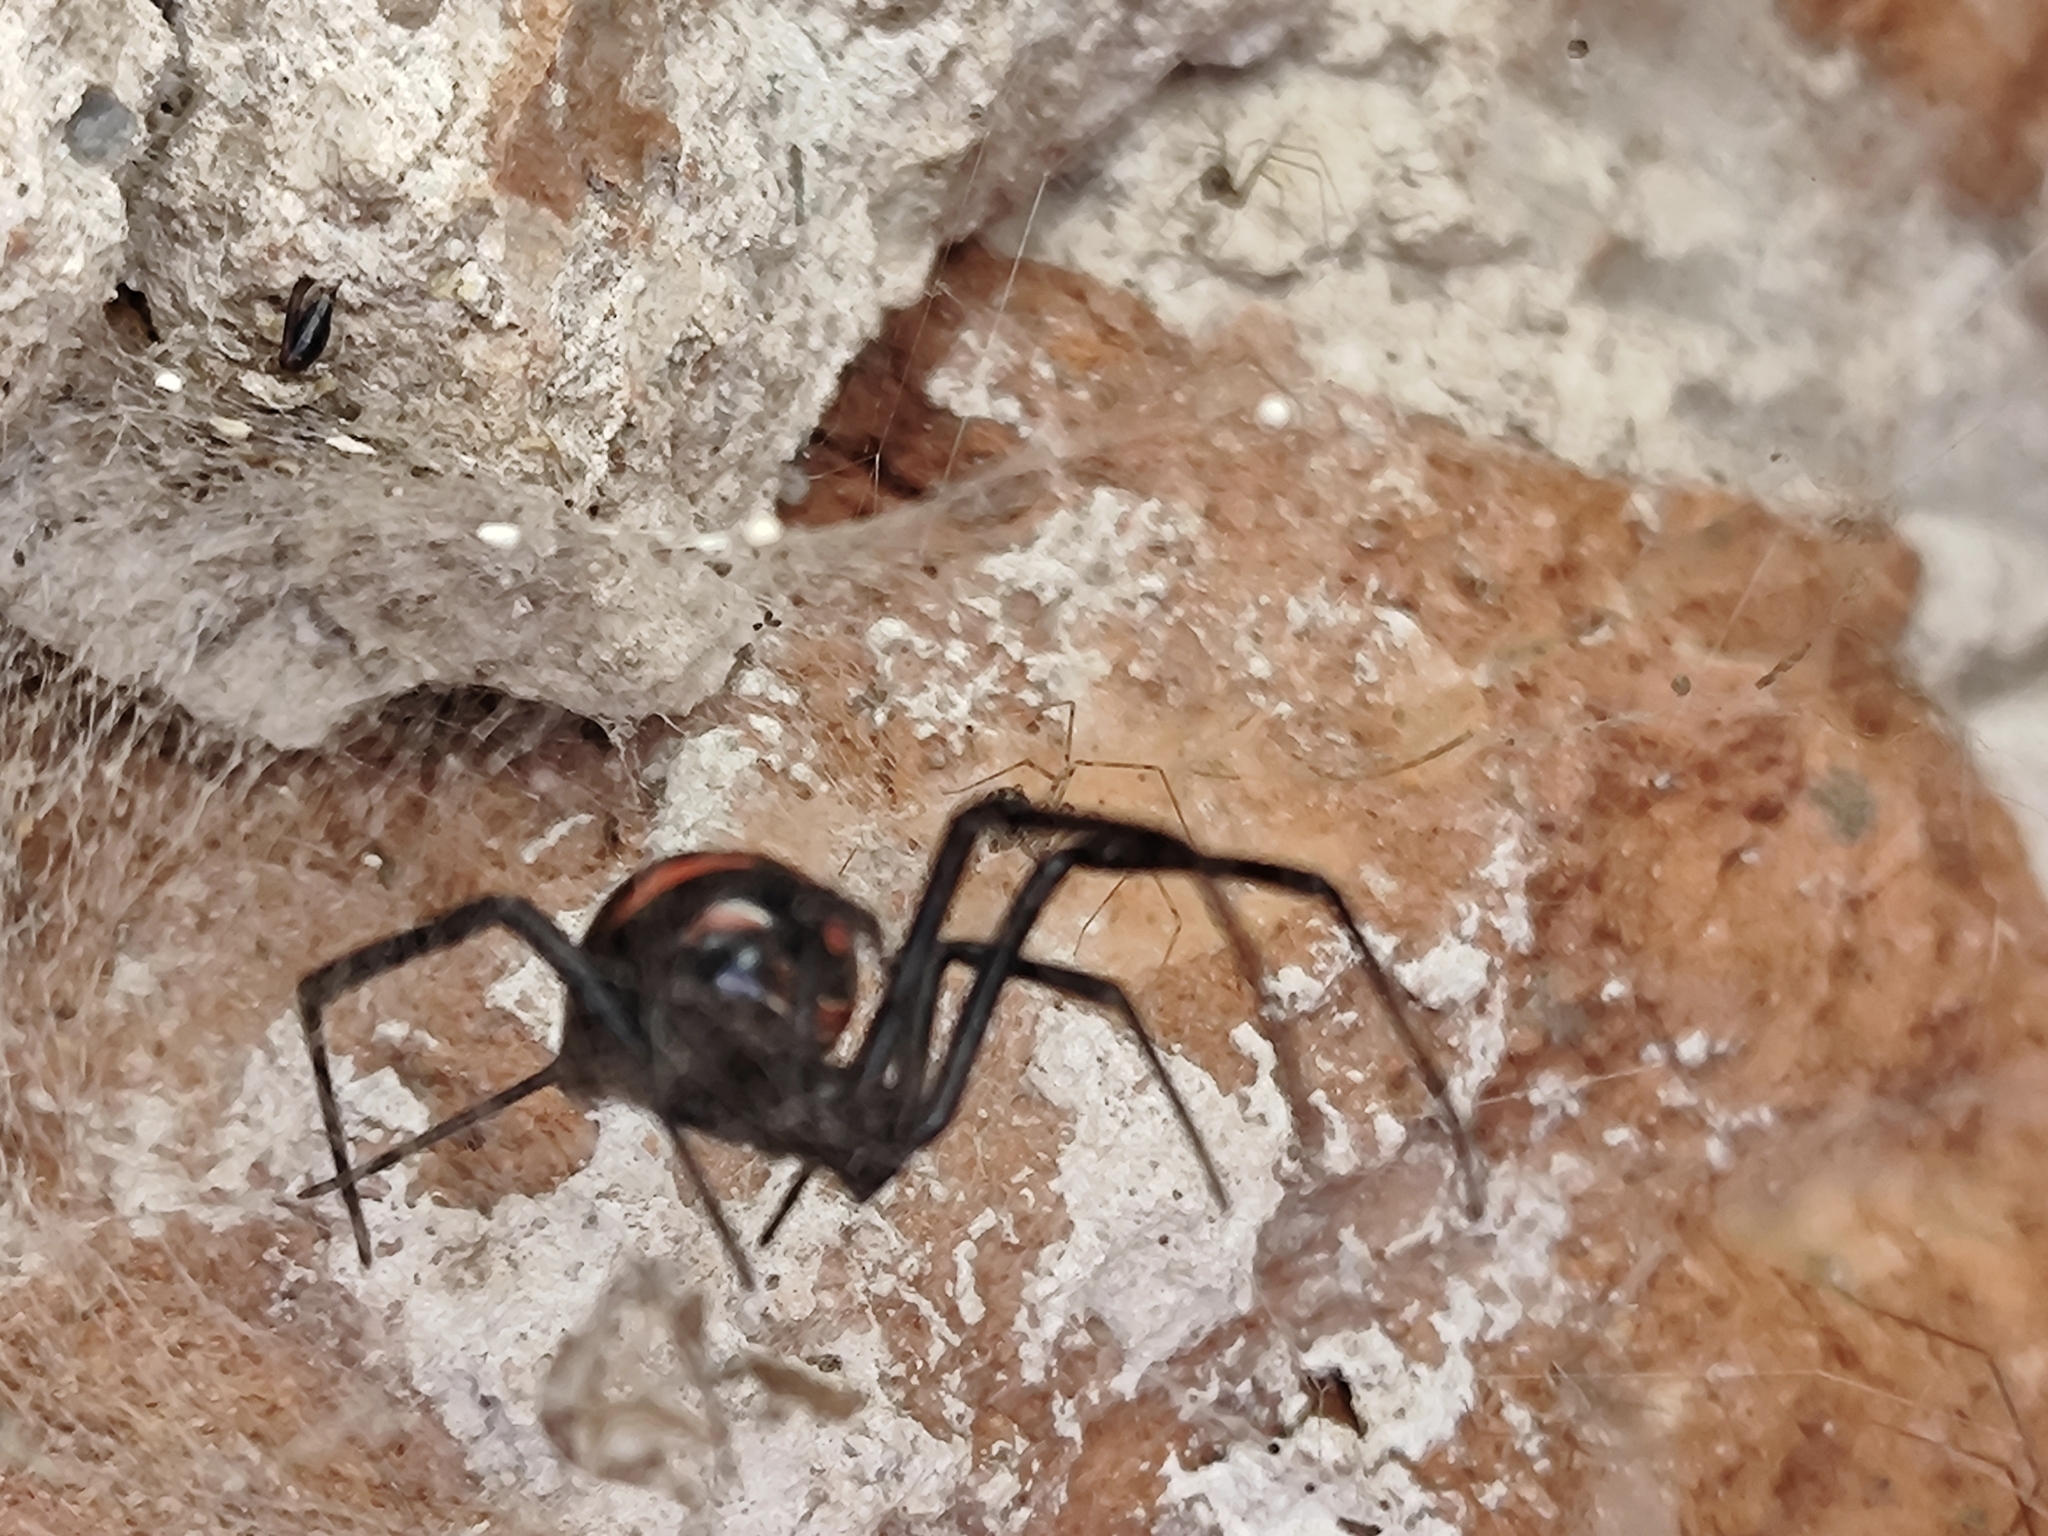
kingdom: Animalia
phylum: Arthropoda
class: Arachnida
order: Araneae
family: Theridiidae
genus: Latrodectus
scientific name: Latrodectus
